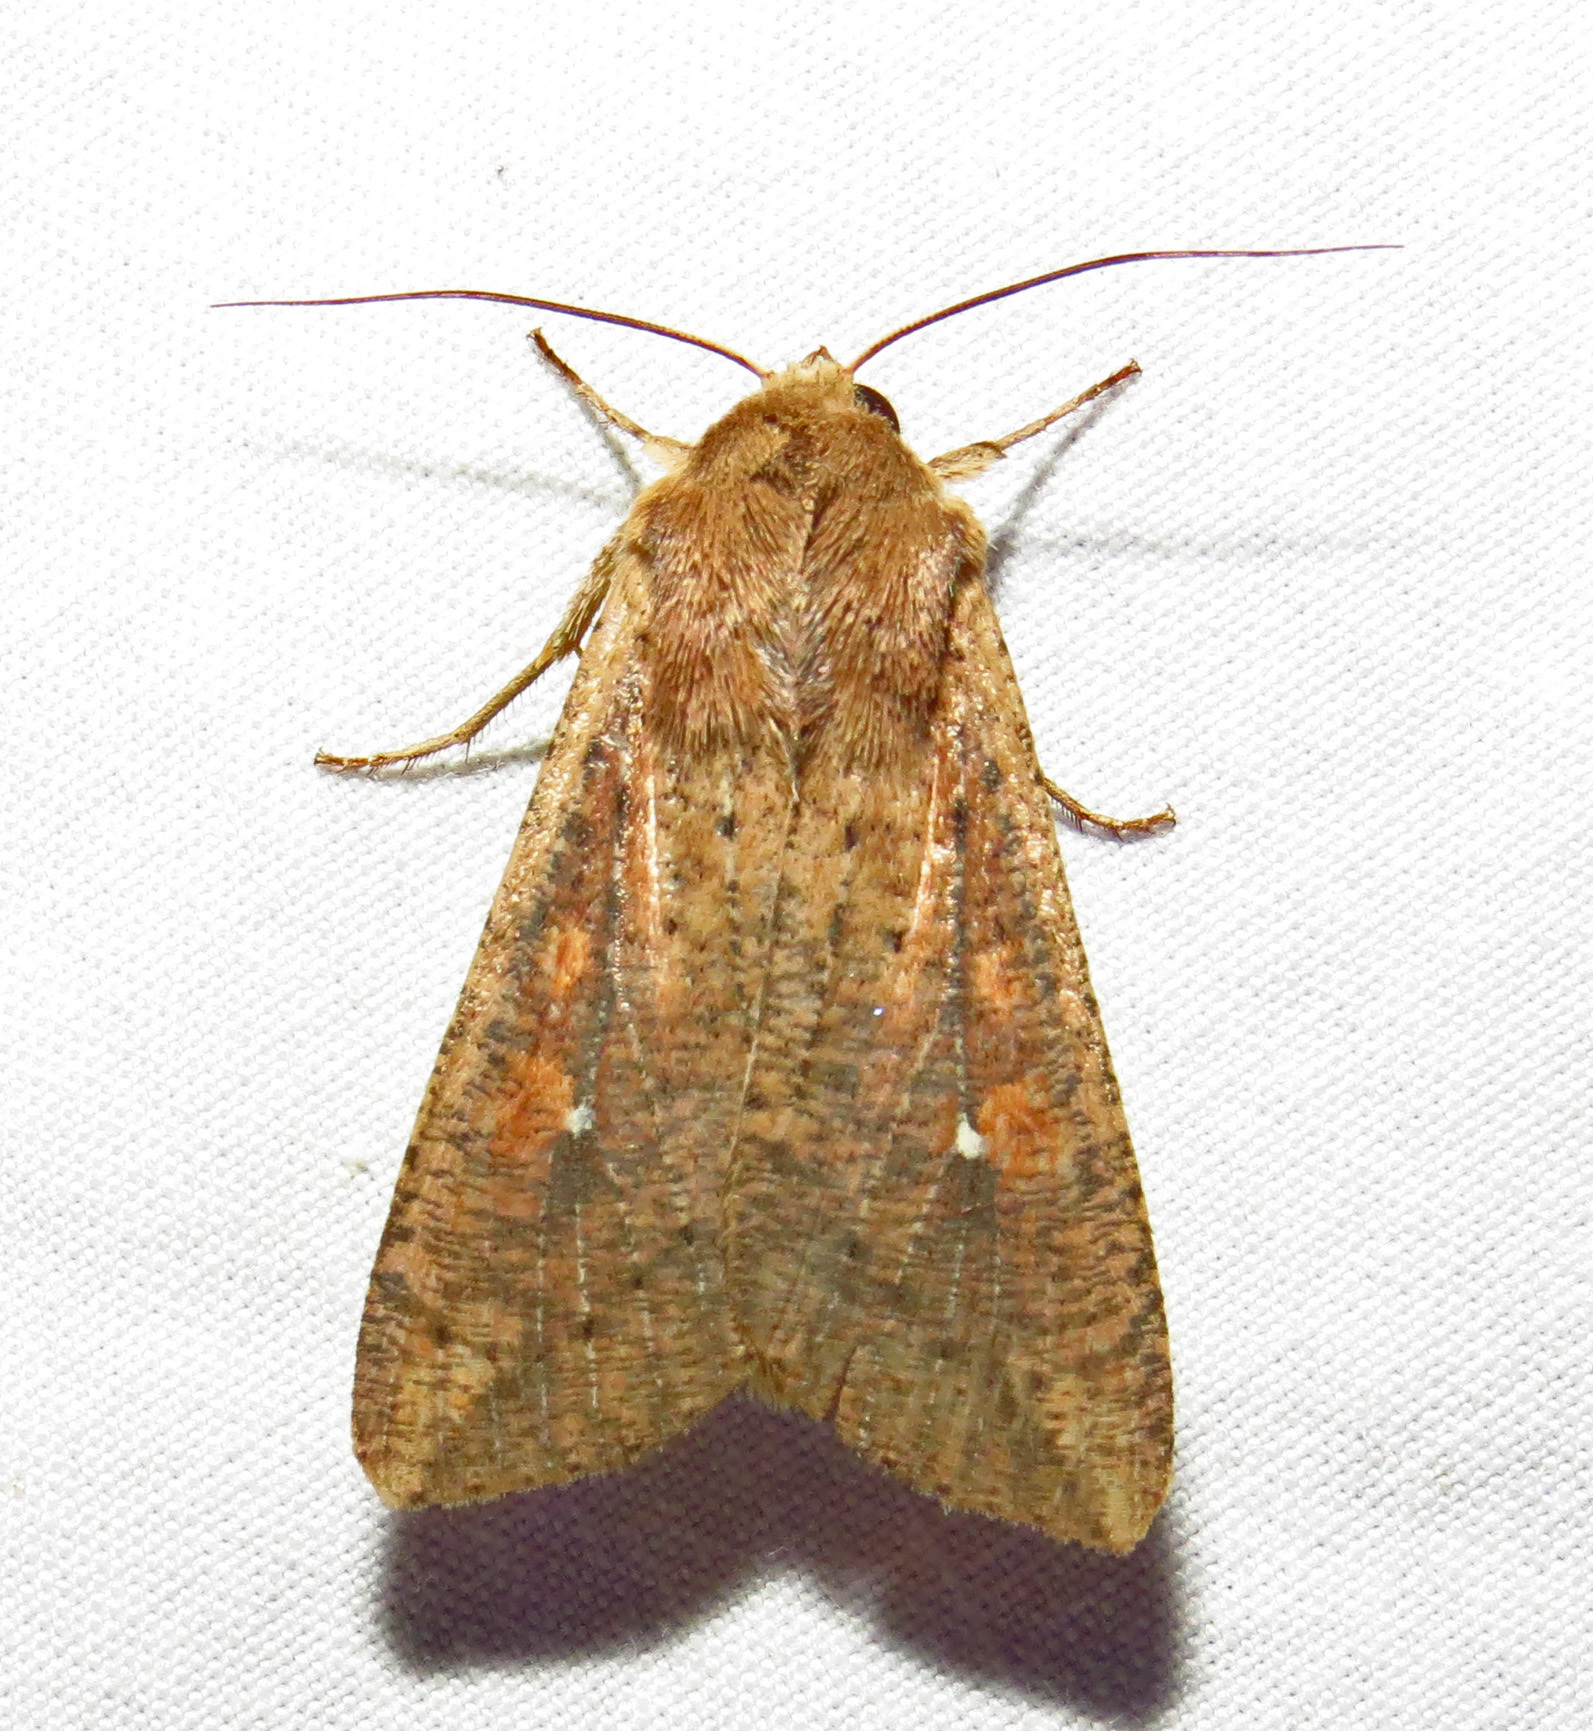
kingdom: Animalia
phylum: Arthropoda
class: Insecta
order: Lepidoptera
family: Noctuidae
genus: Mythimna
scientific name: Mythimna unipuncta
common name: White-speck
